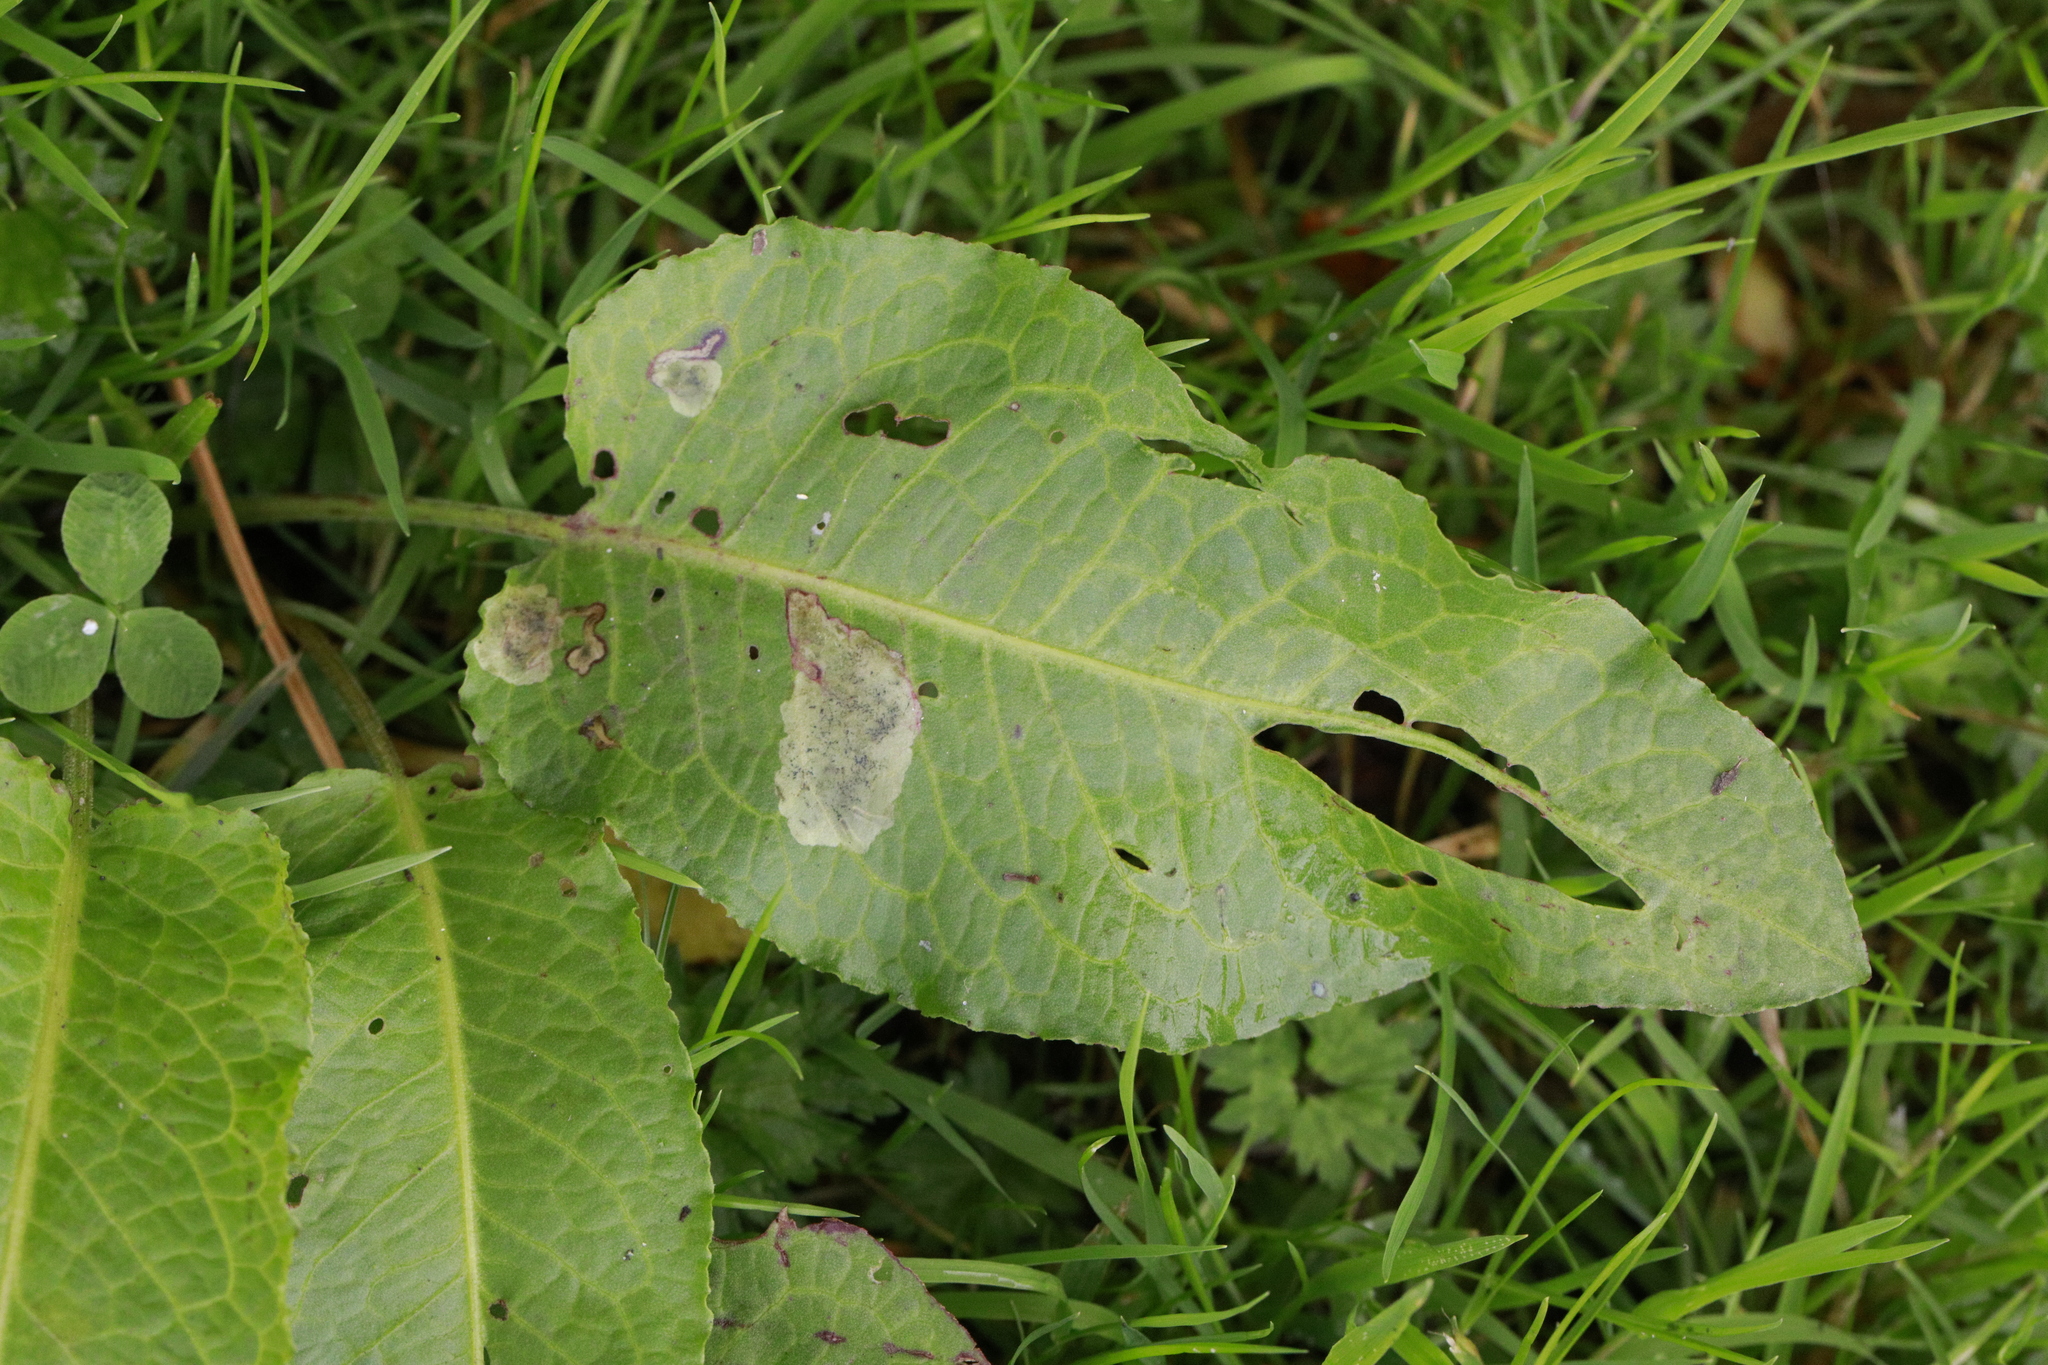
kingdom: Plantae
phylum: Tracheophyta
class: Magnoliopsida
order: Caryophyllales
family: Polygonaceae
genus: Rumex
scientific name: Rumex obtusifolius
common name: Bitter dock
